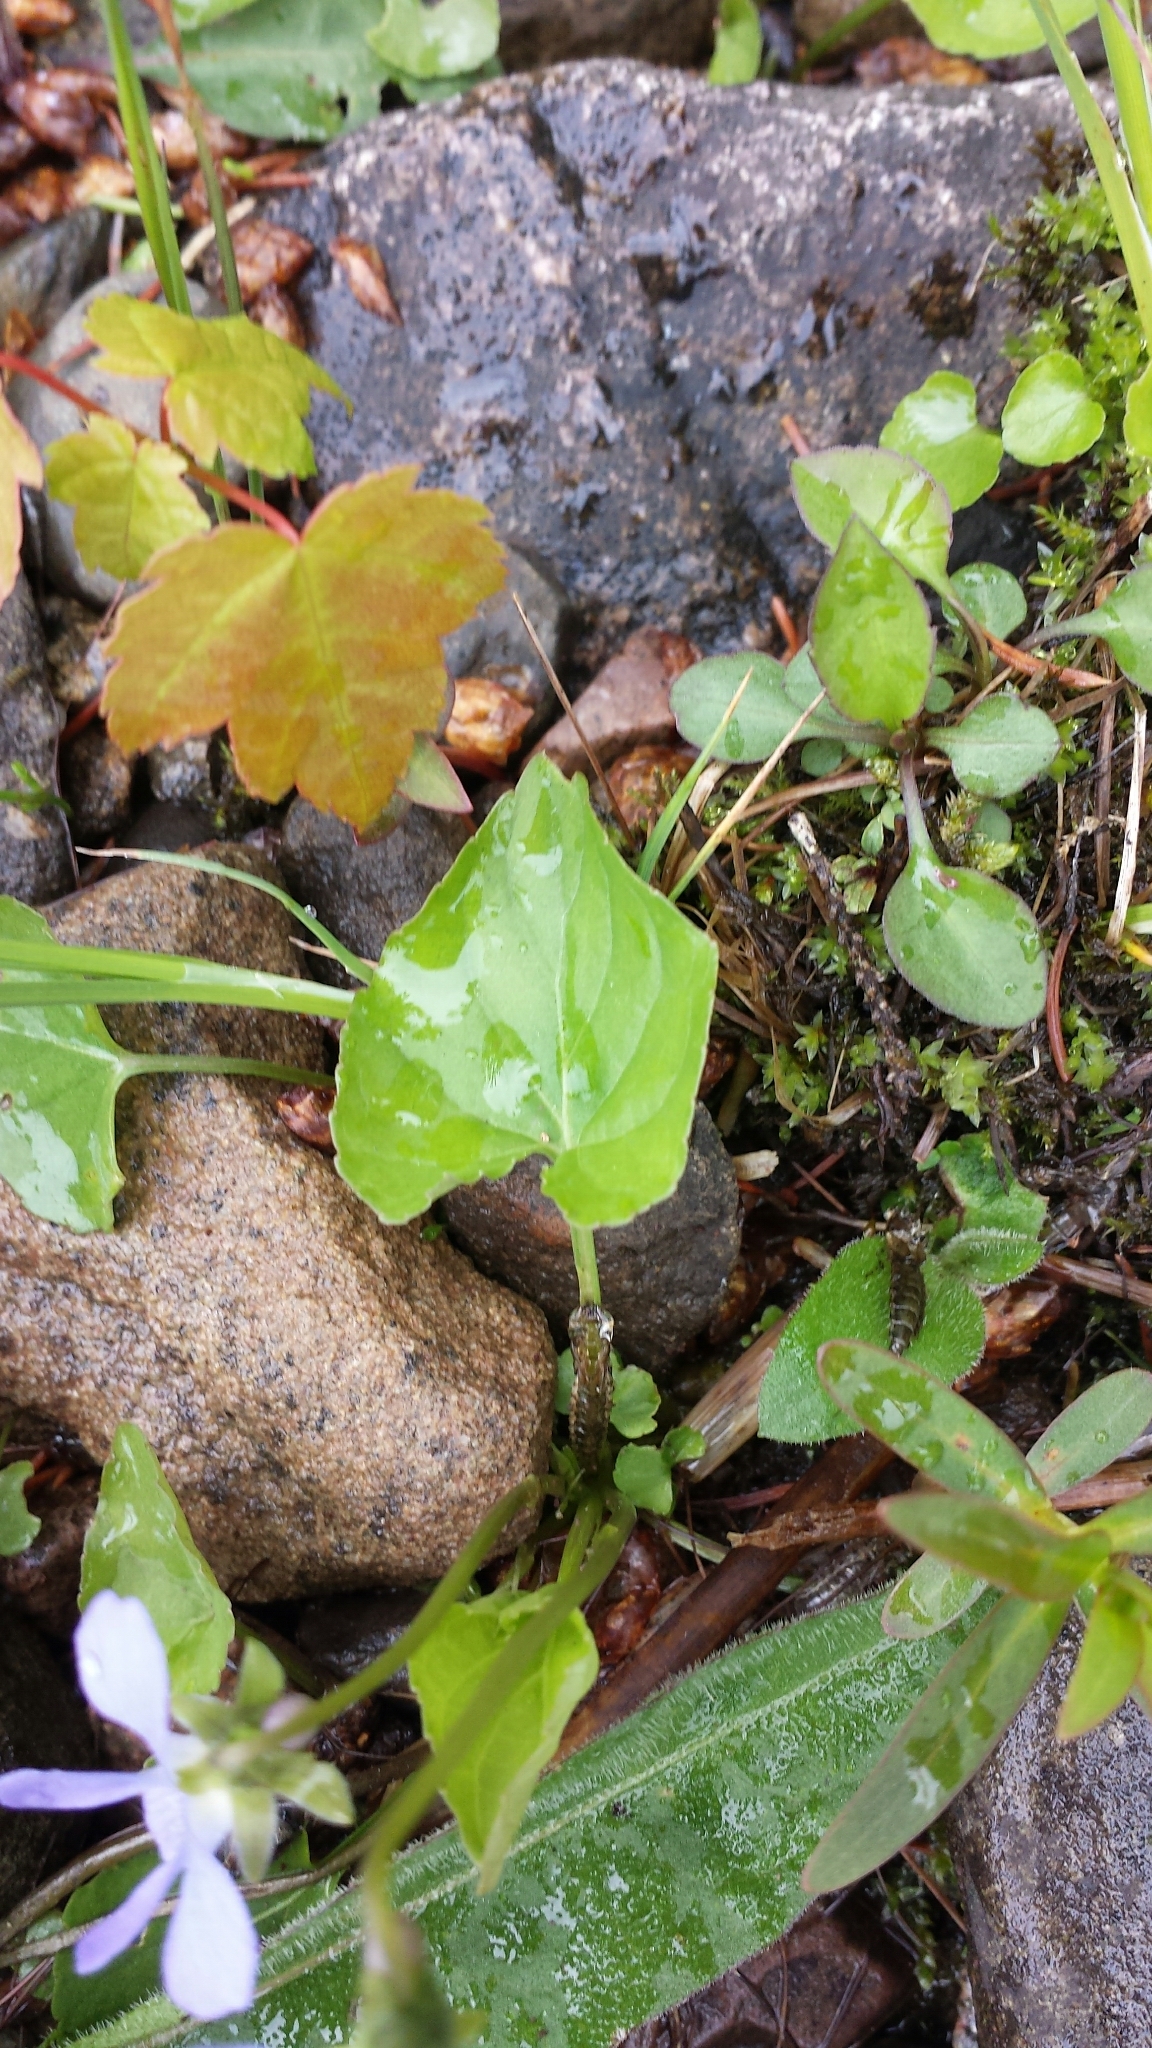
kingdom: Plantae
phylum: Tracheophyta
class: Magnoliopsida
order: Malpighiales
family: Violaceae
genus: Viola
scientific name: Viola cucullata
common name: Marsh blue violet
